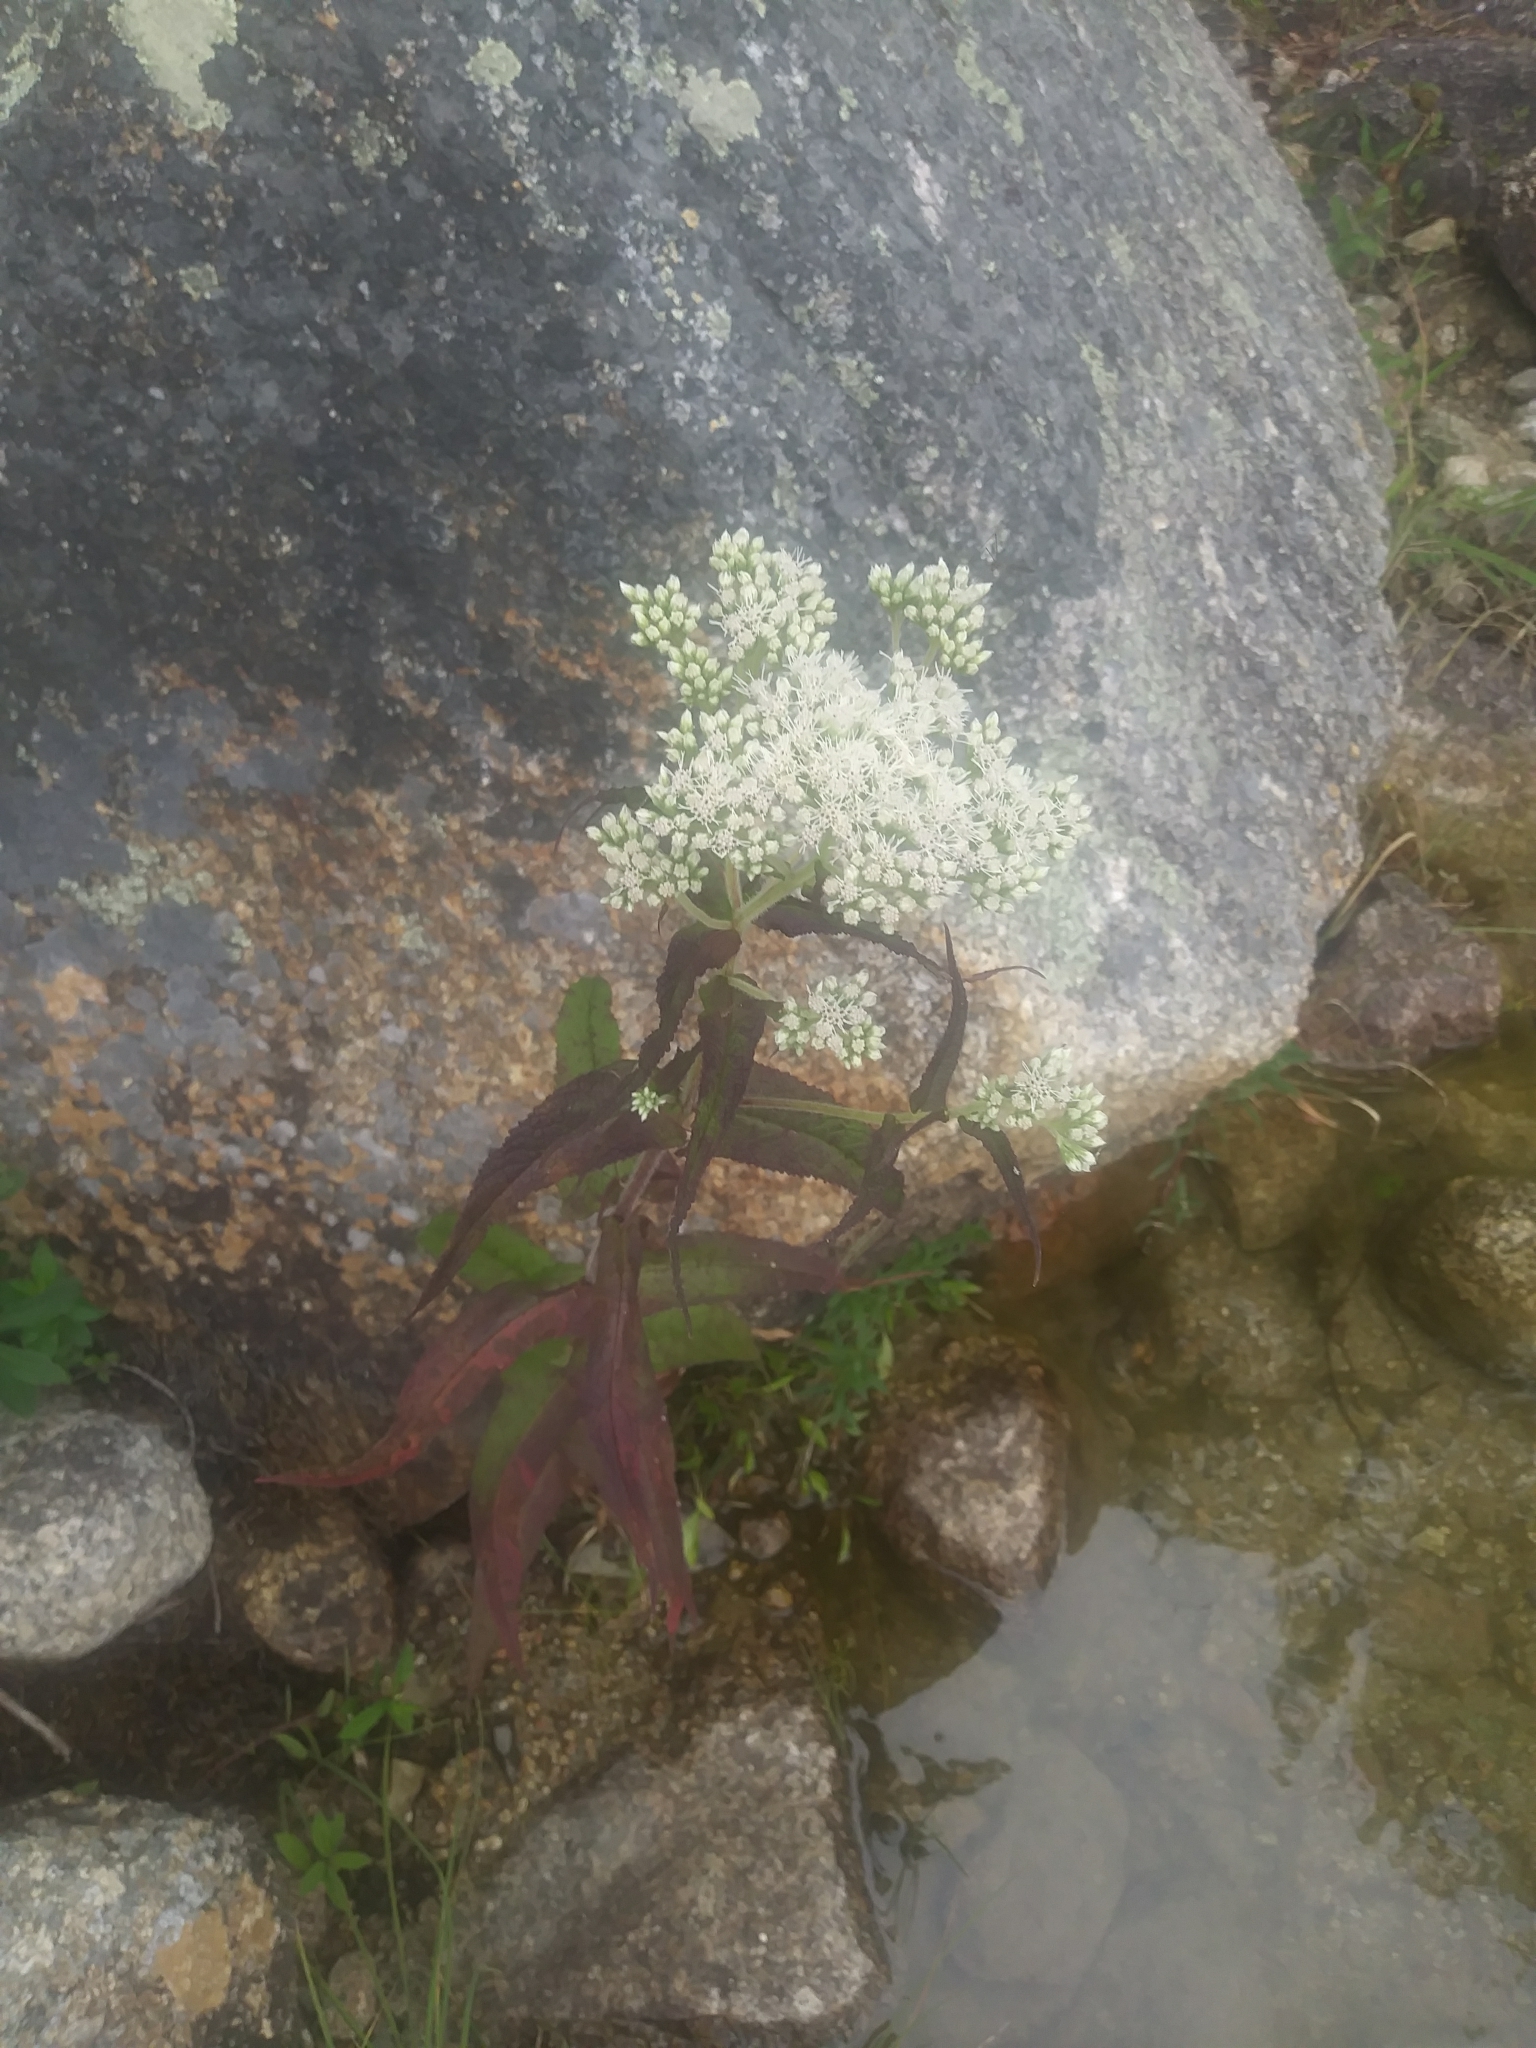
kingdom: Plantae
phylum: Tracheophyta
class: Magnoliopsida
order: Asterales
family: Asteraceae
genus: Eupatorium
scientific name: Eupatorium perfoliatum
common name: Boneset
